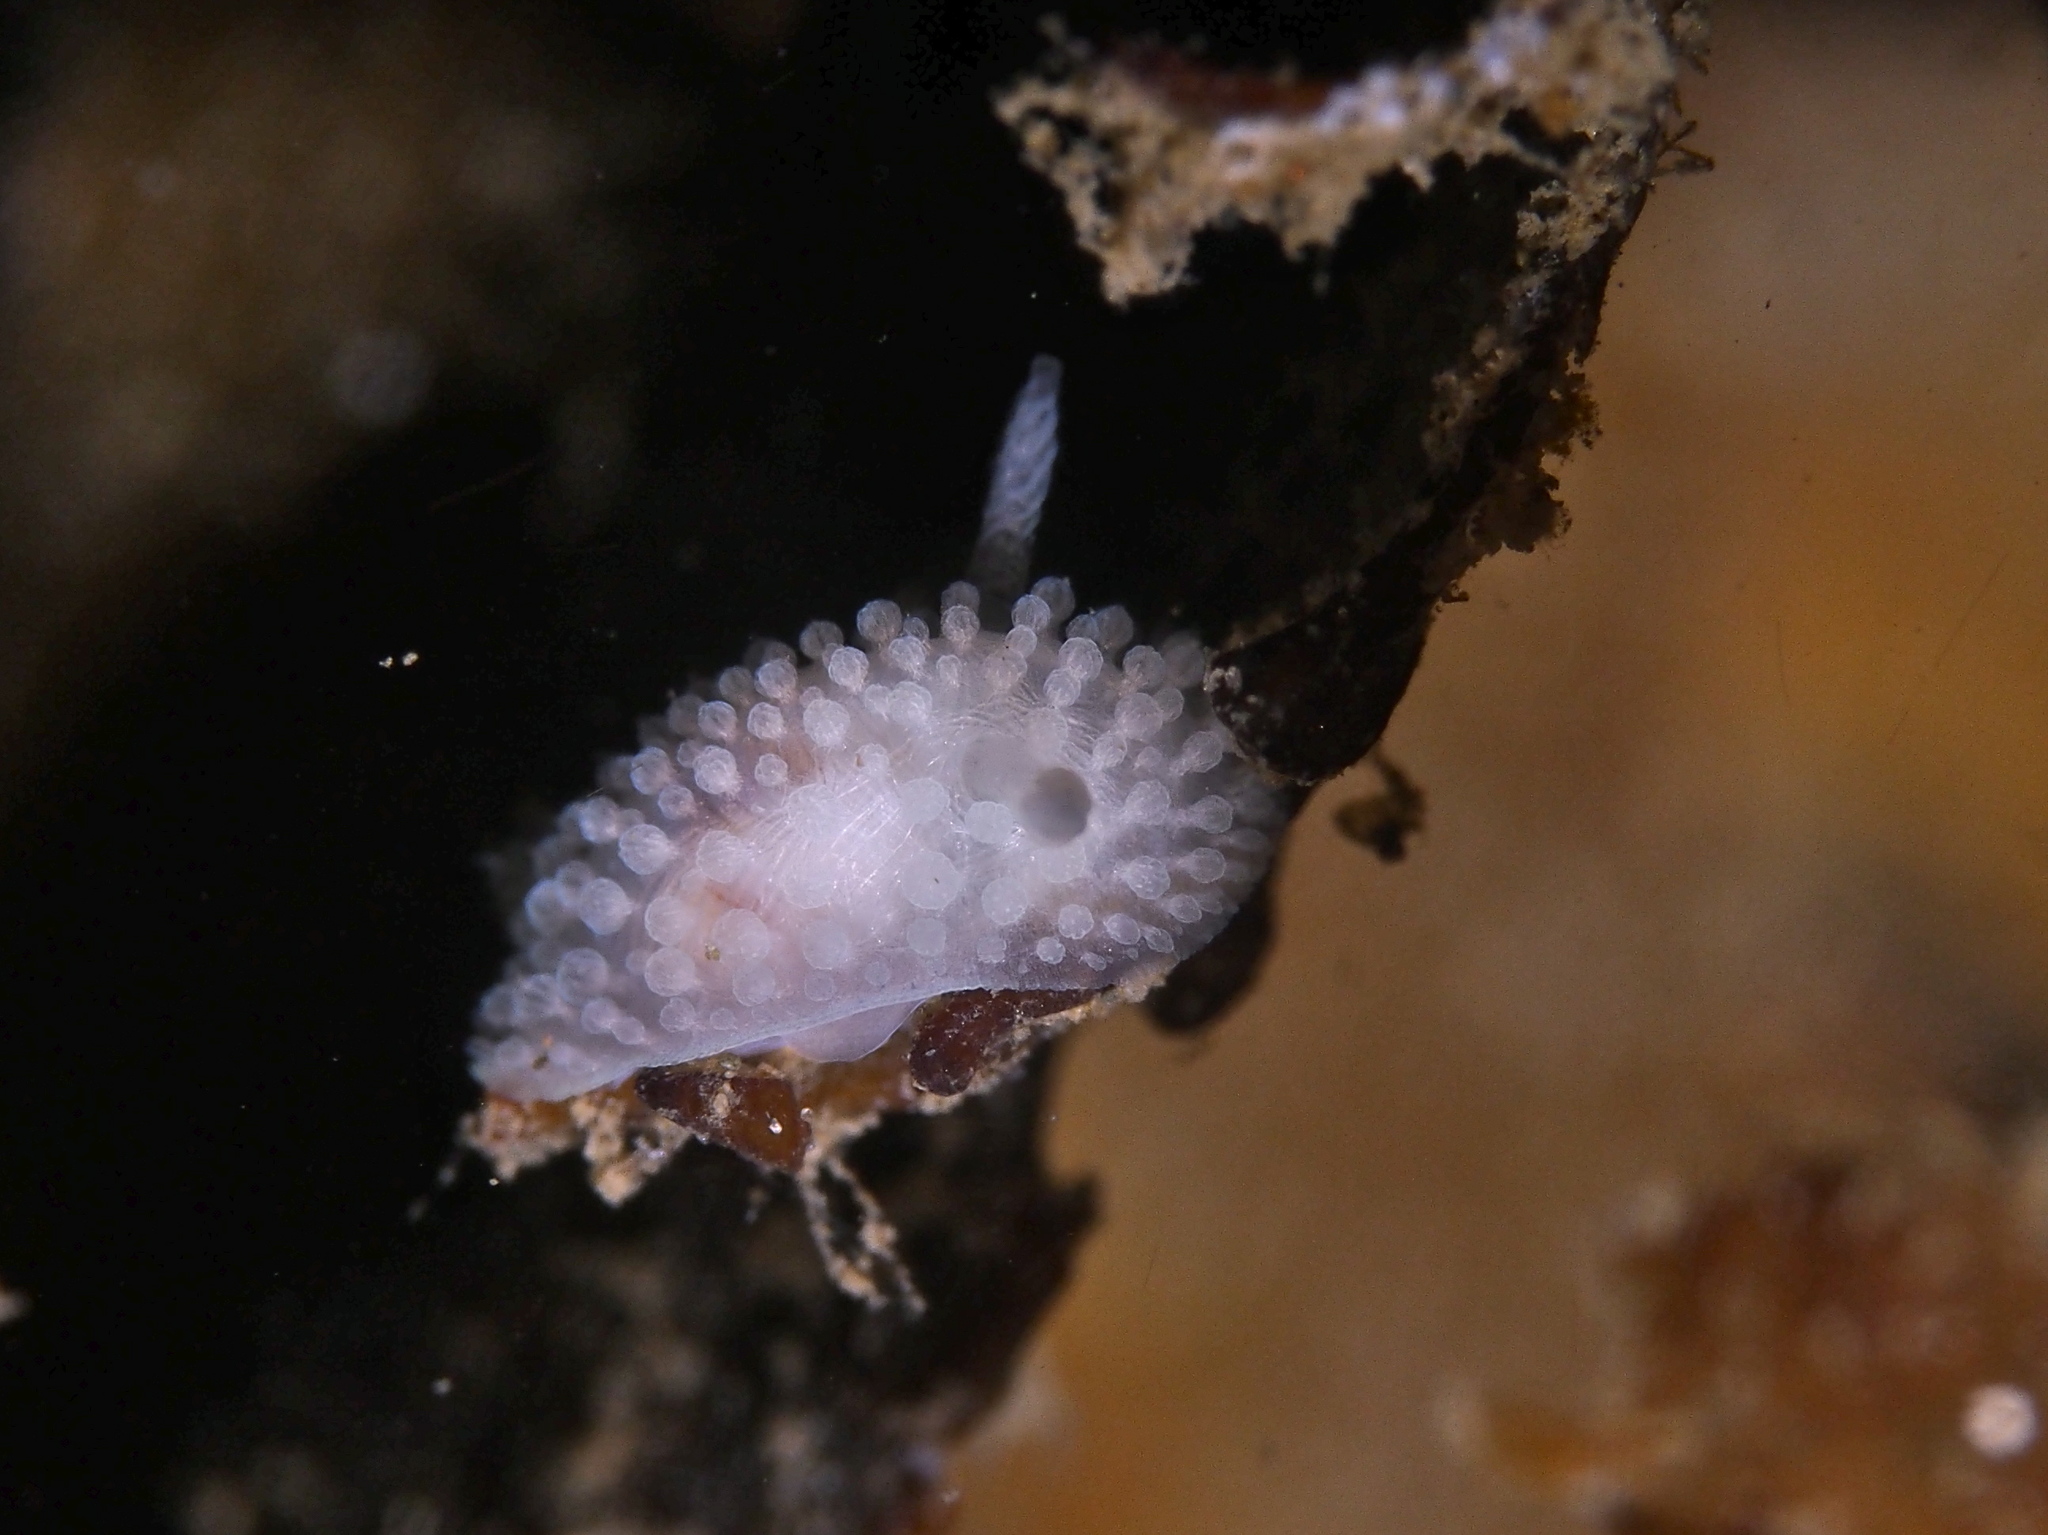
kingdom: Animalia
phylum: Mollusca
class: Gastropoda
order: Nudibranchia
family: Onchidorididae
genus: Onchidoris
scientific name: Onchidoris muricata
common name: Rough doris
